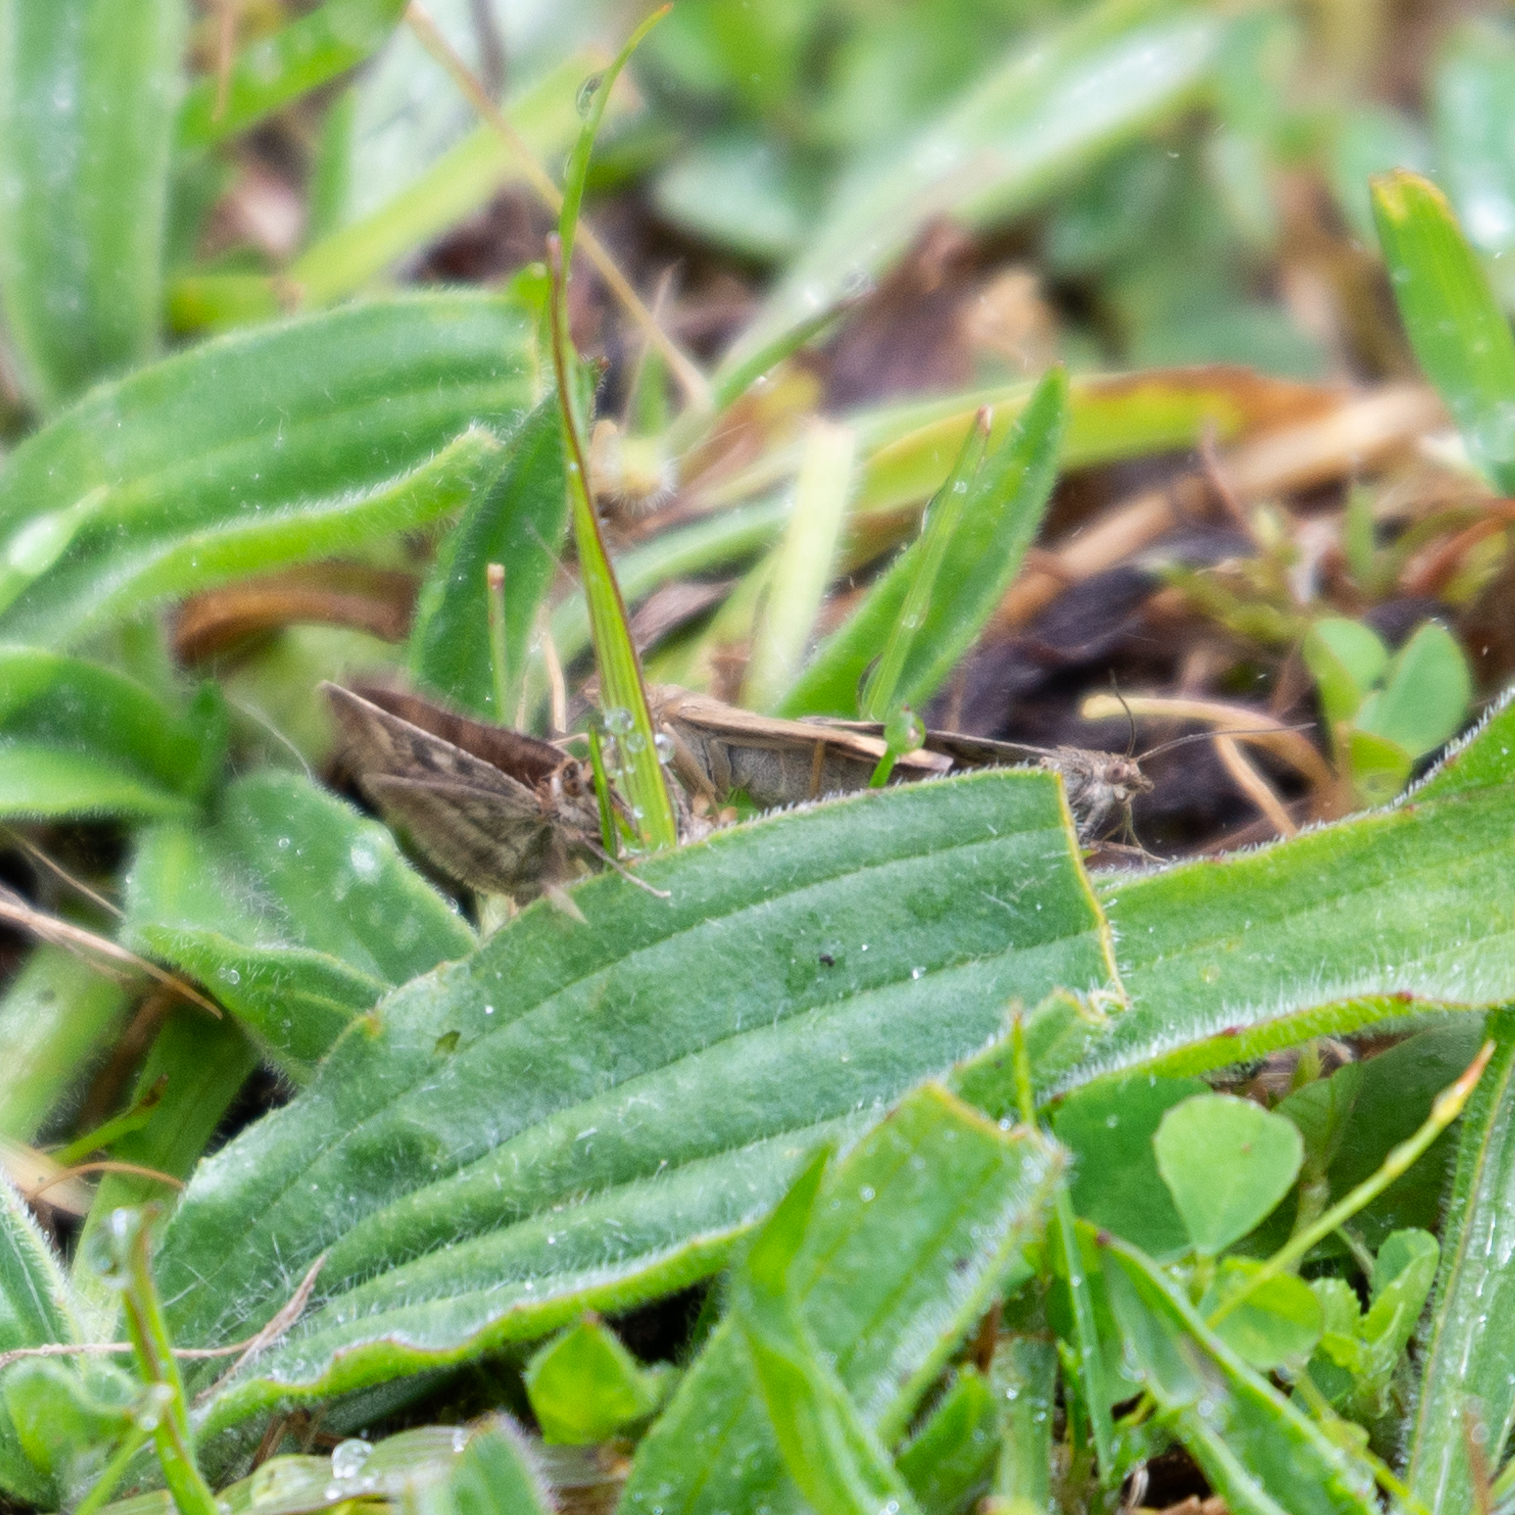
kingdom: Animalia
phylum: Arthropoda
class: Insecta
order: Lepidoptera
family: Crambidae
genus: Pyrausta
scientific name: Pyrausta despicata
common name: Straw-barred pearl
